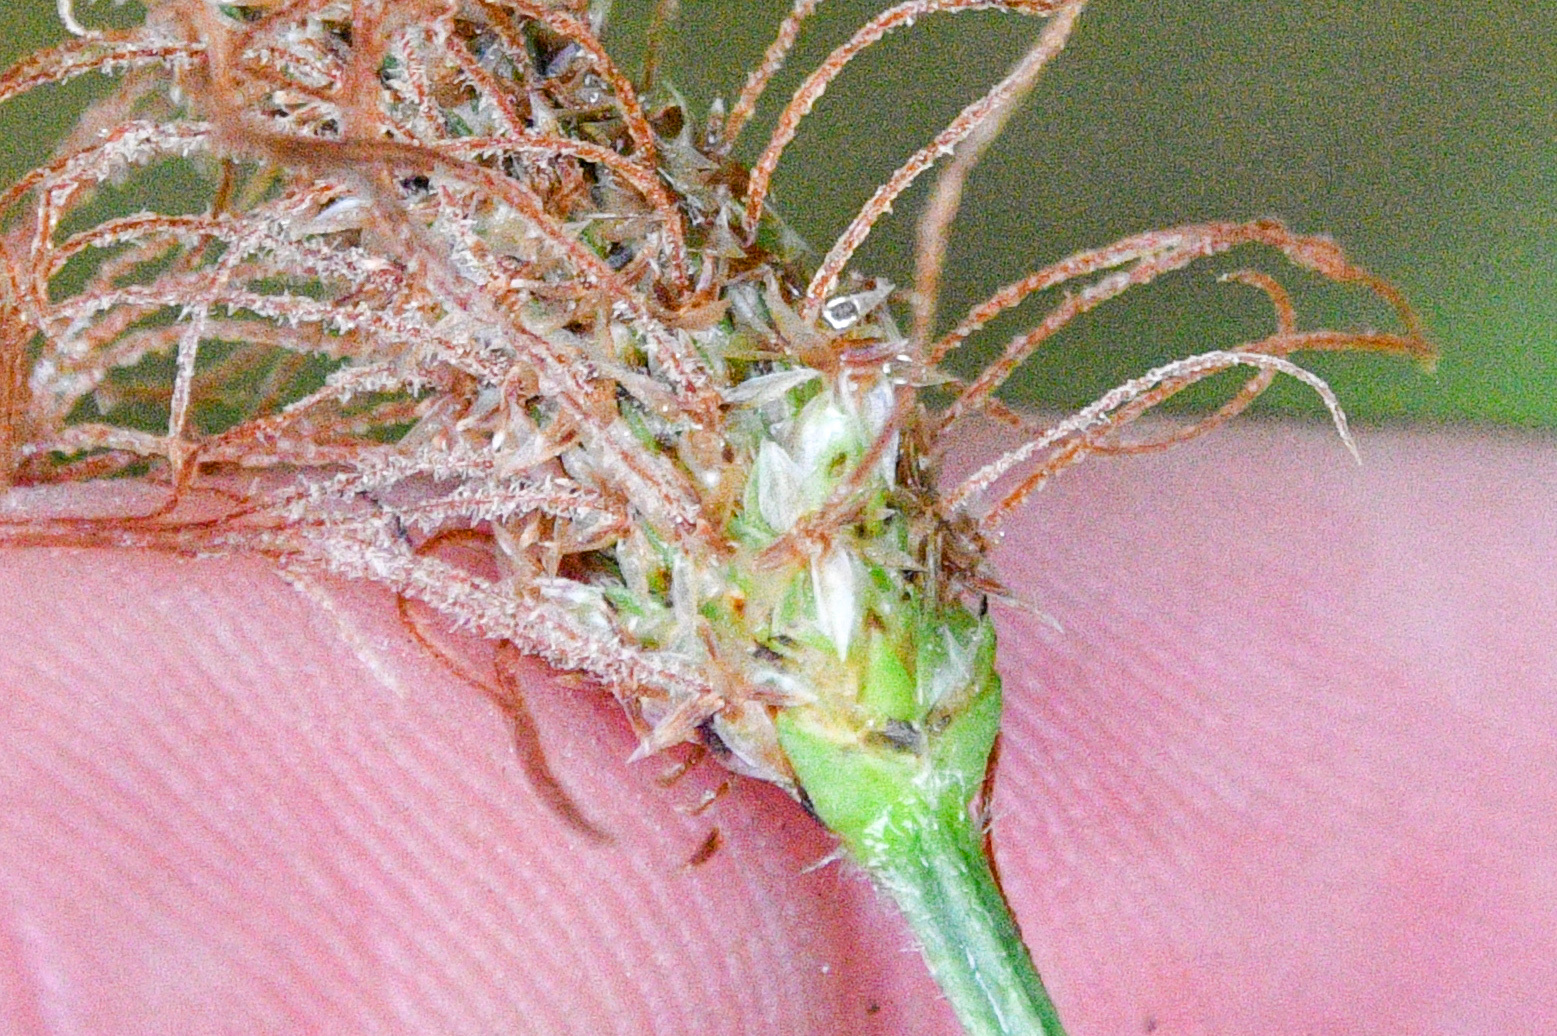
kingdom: Plantae
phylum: Tracheophyta
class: Magnoliopsida
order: Lamiales
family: Plantaginaceae
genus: Plantago
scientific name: Plantago lanceolata
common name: Ribwort plantain
